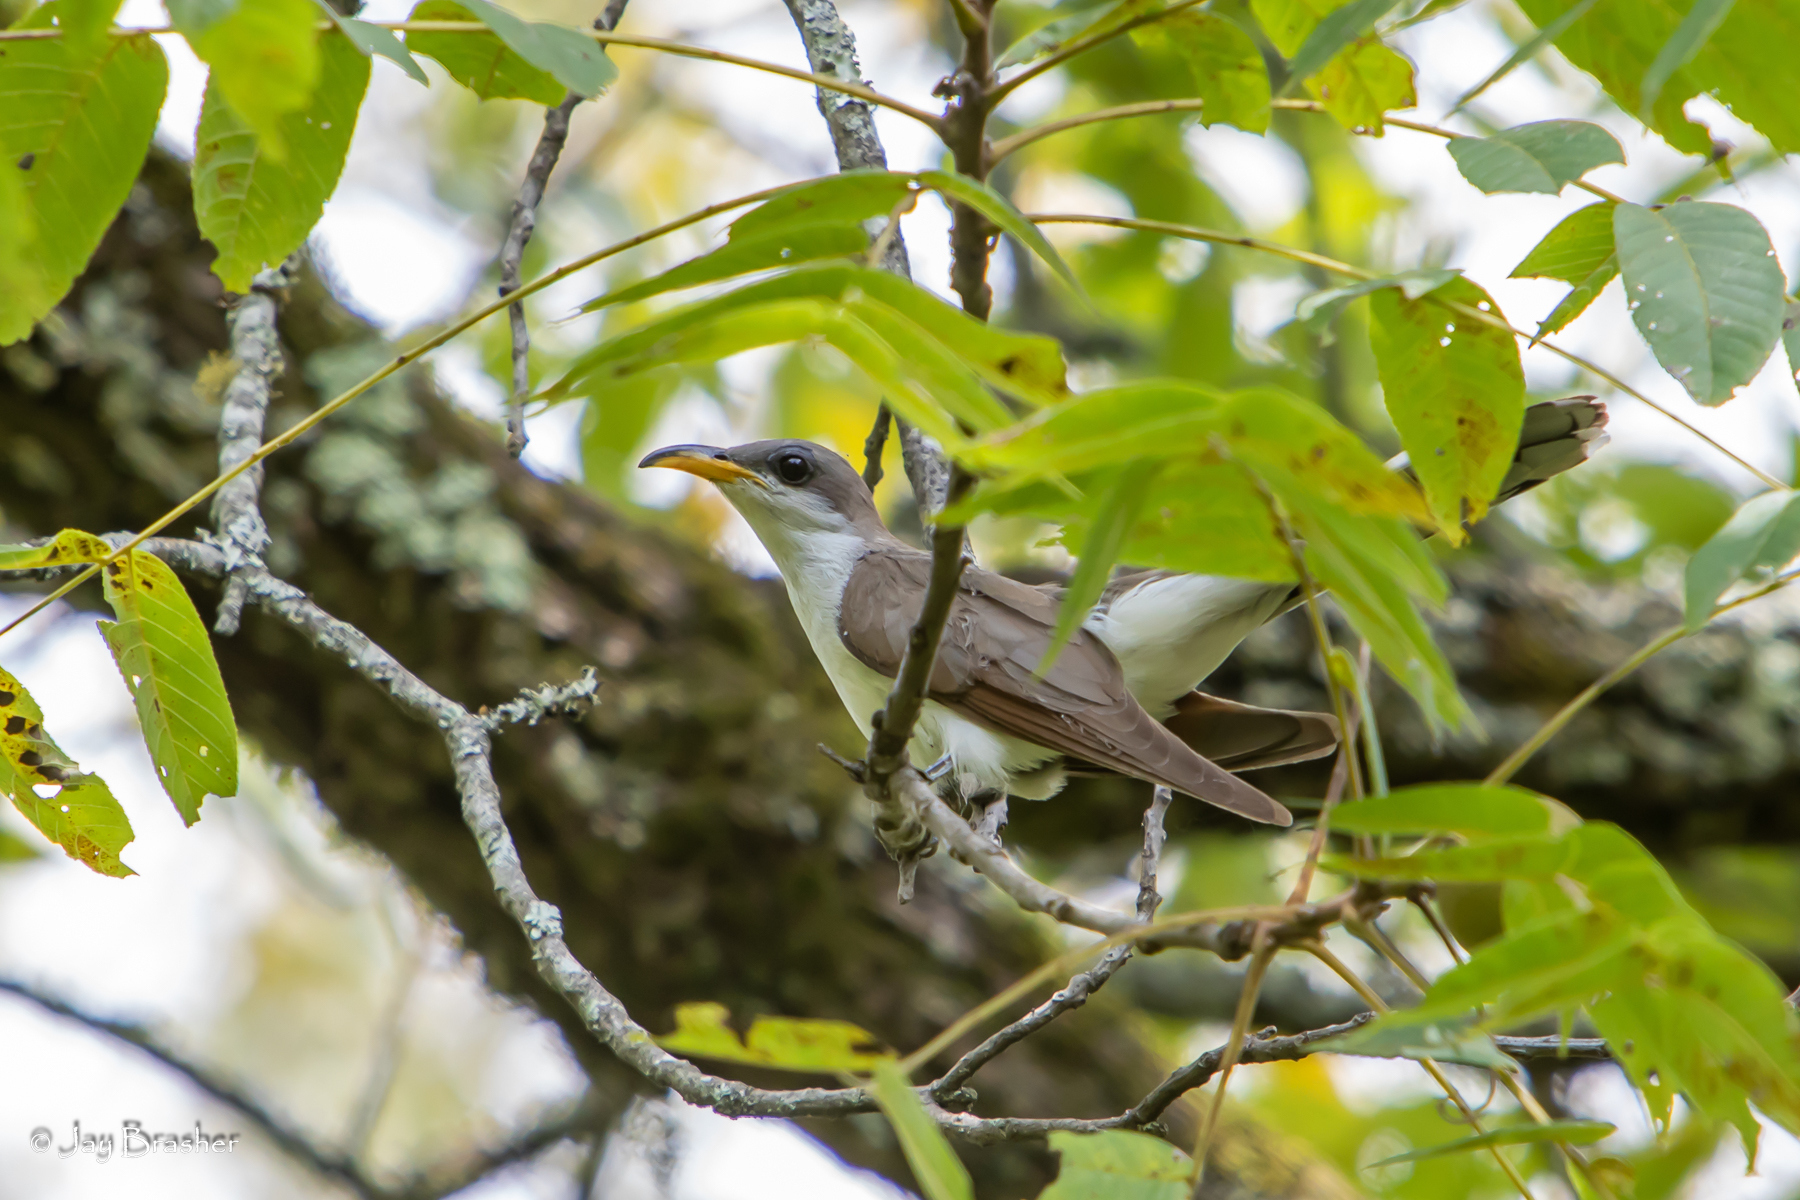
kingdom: Animalia
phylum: Chordata
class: Aves
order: Cuculiformes
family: Cuculidae
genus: Coccyzus
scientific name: Coccyzus americanus
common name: Yellow-billed cuckoo
